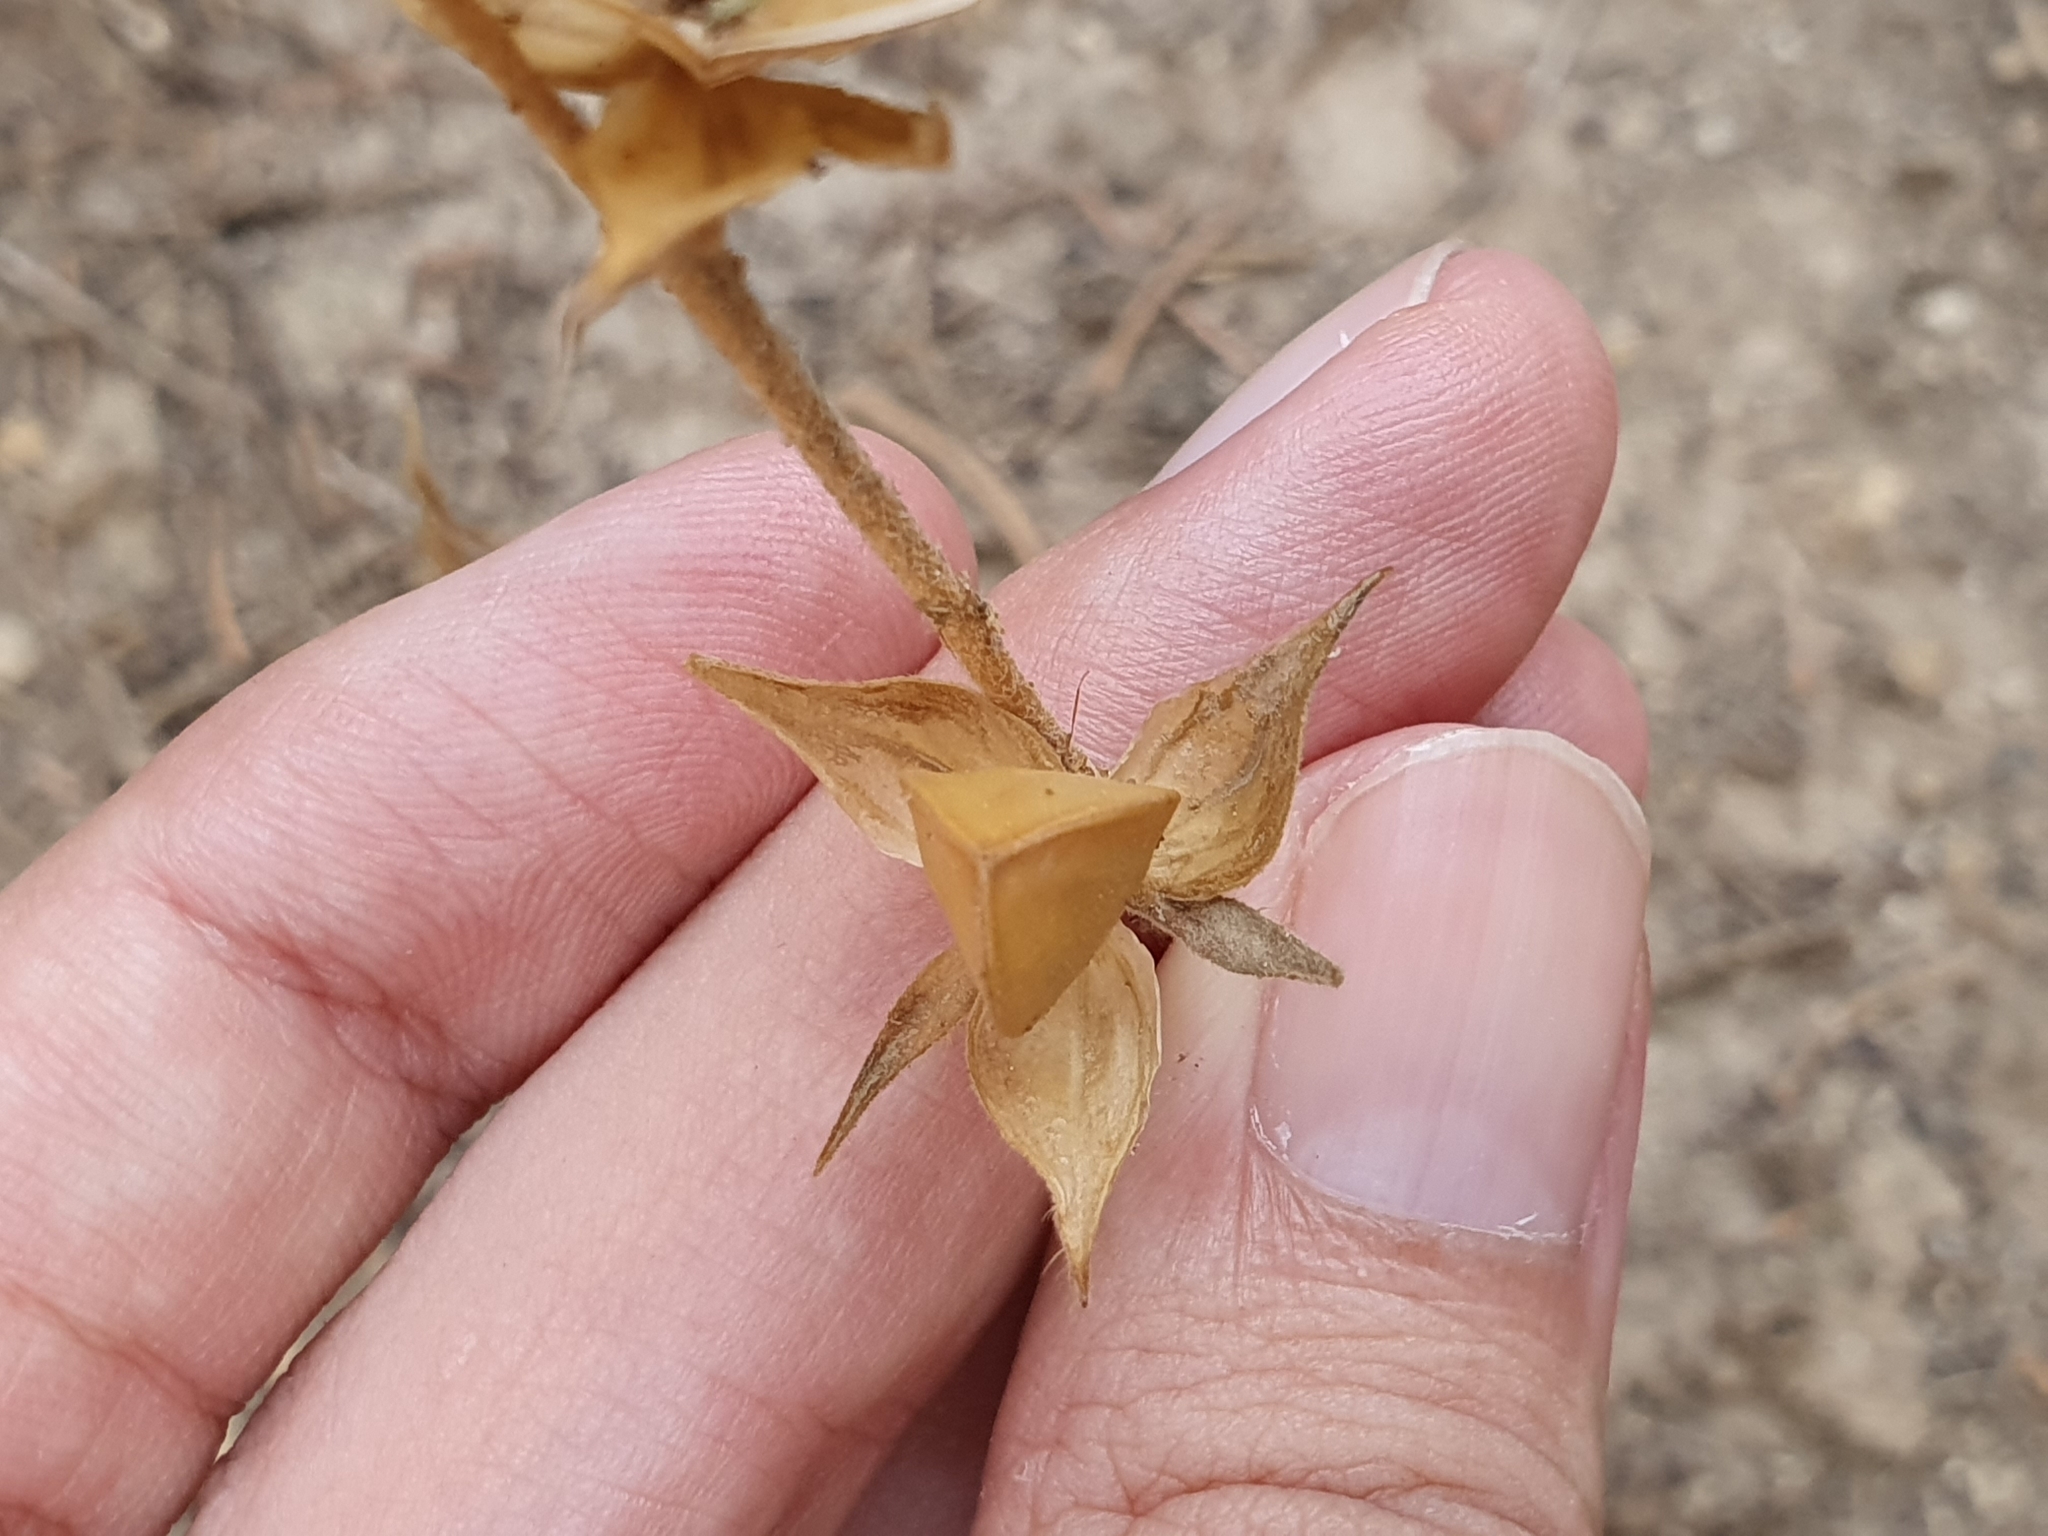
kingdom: Plantae
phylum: Tracheophyta
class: Magnoliopsida
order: Malvales
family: Cistaceae
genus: Helianthemum
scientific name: Helianthemum ledifolium
